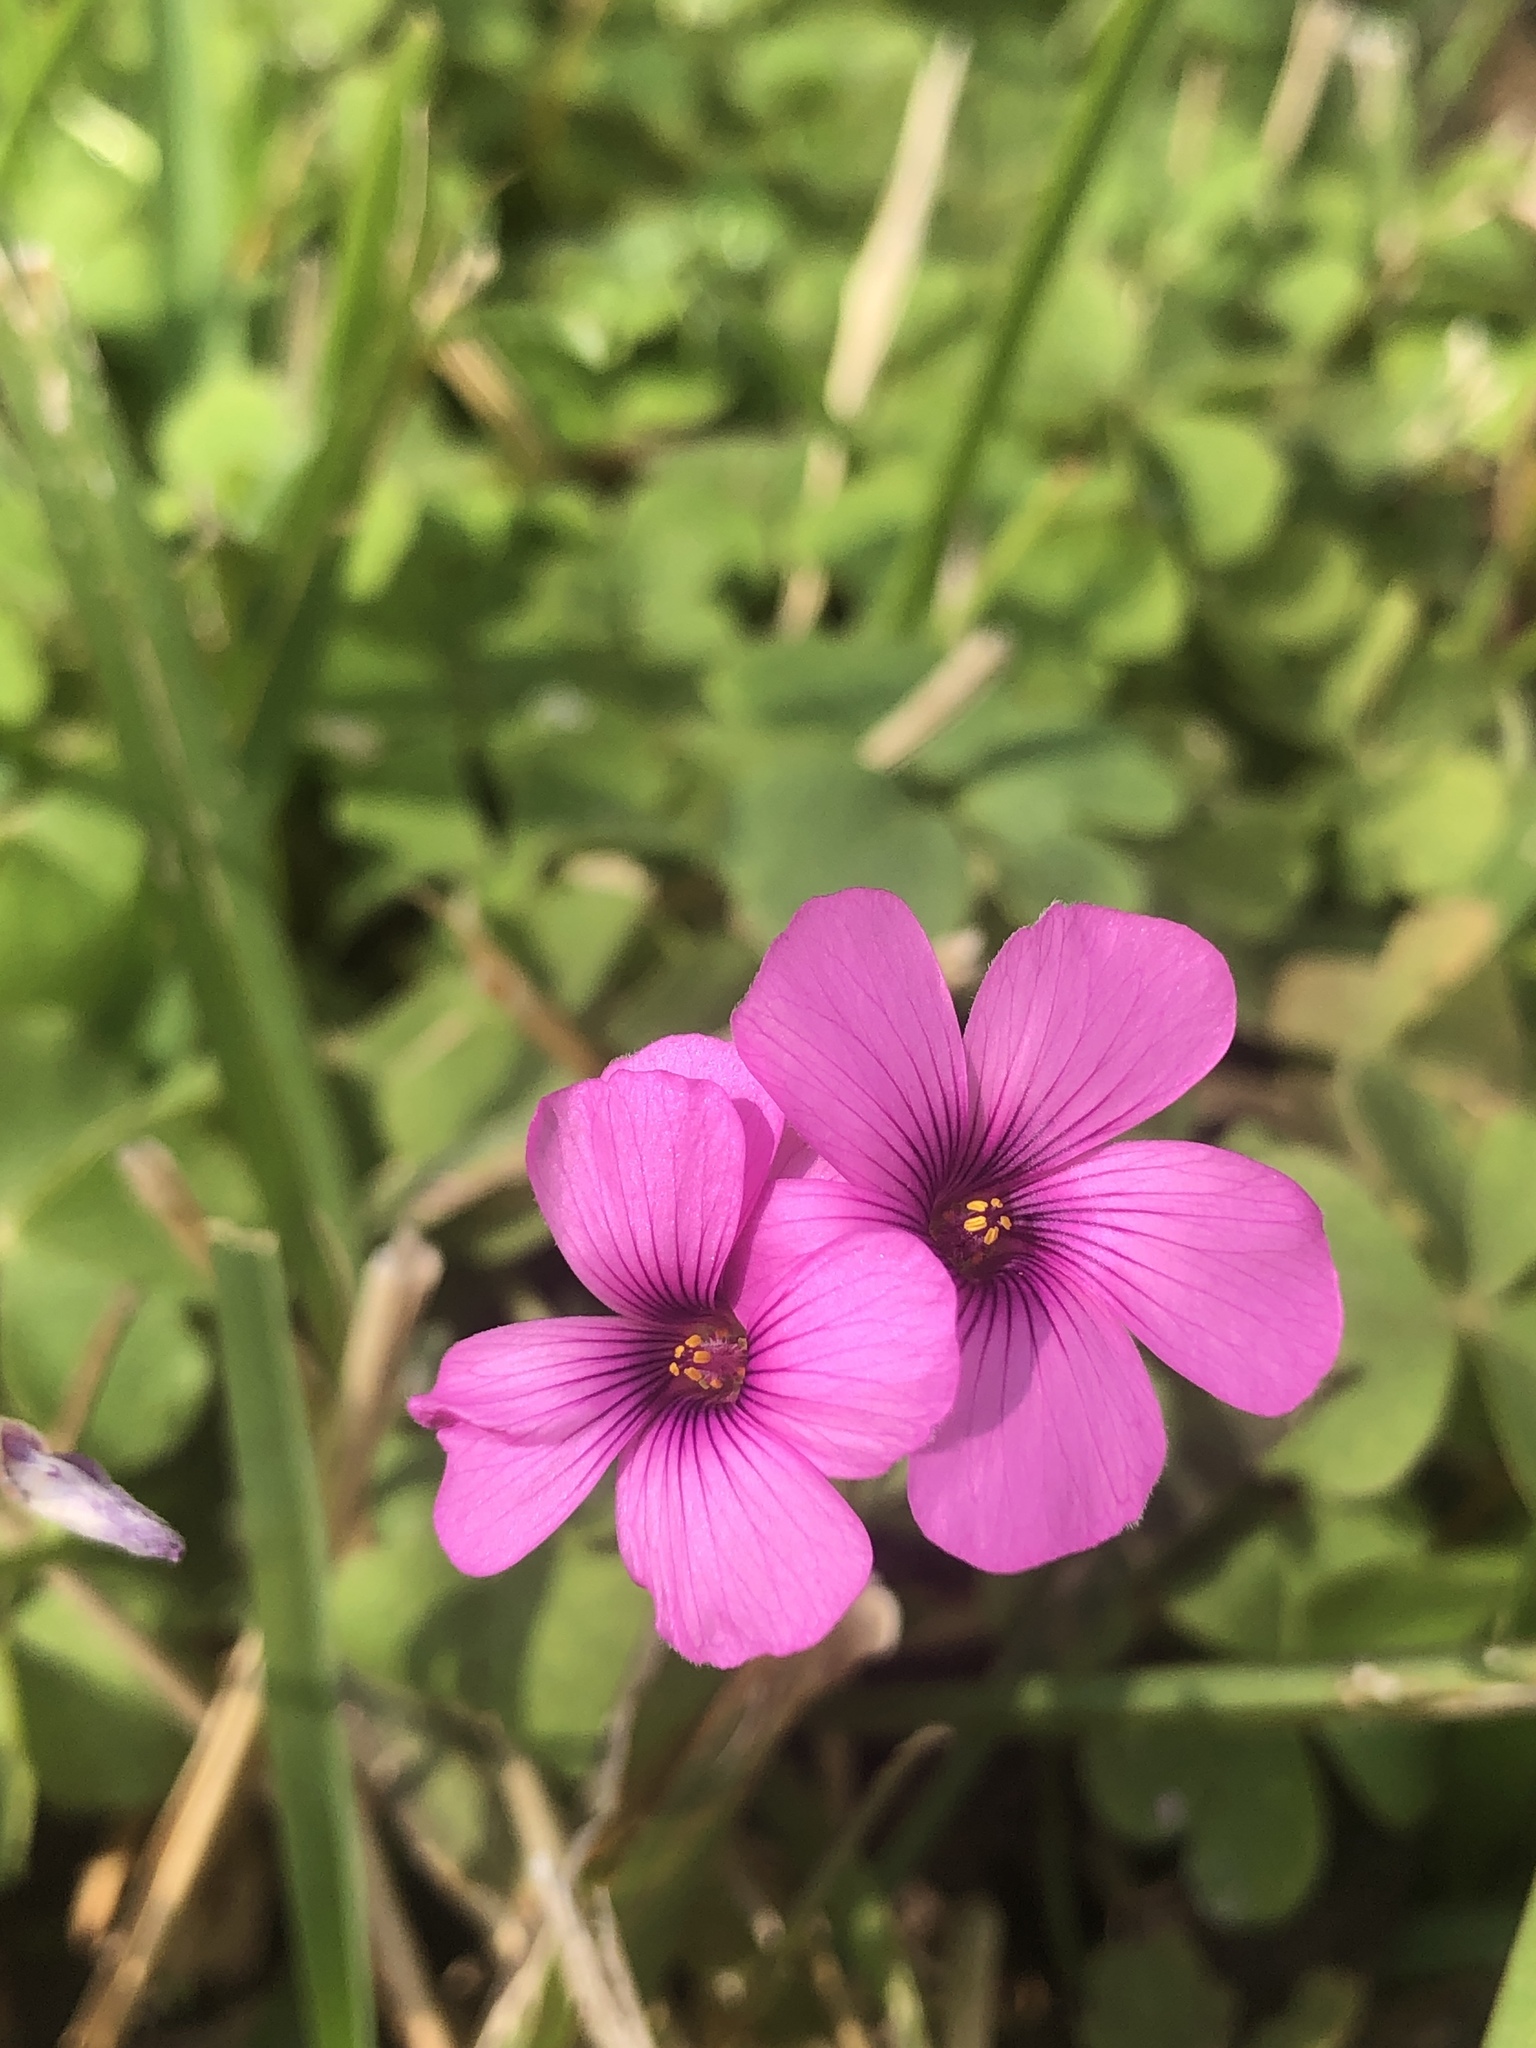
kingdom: Plantae
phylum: Tracheophyta
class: Magnoliopsida
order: Oxalidales
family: Oxalidaceae
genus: Oxalis
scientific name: Oxalis articulata
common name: Pink-sorrel
